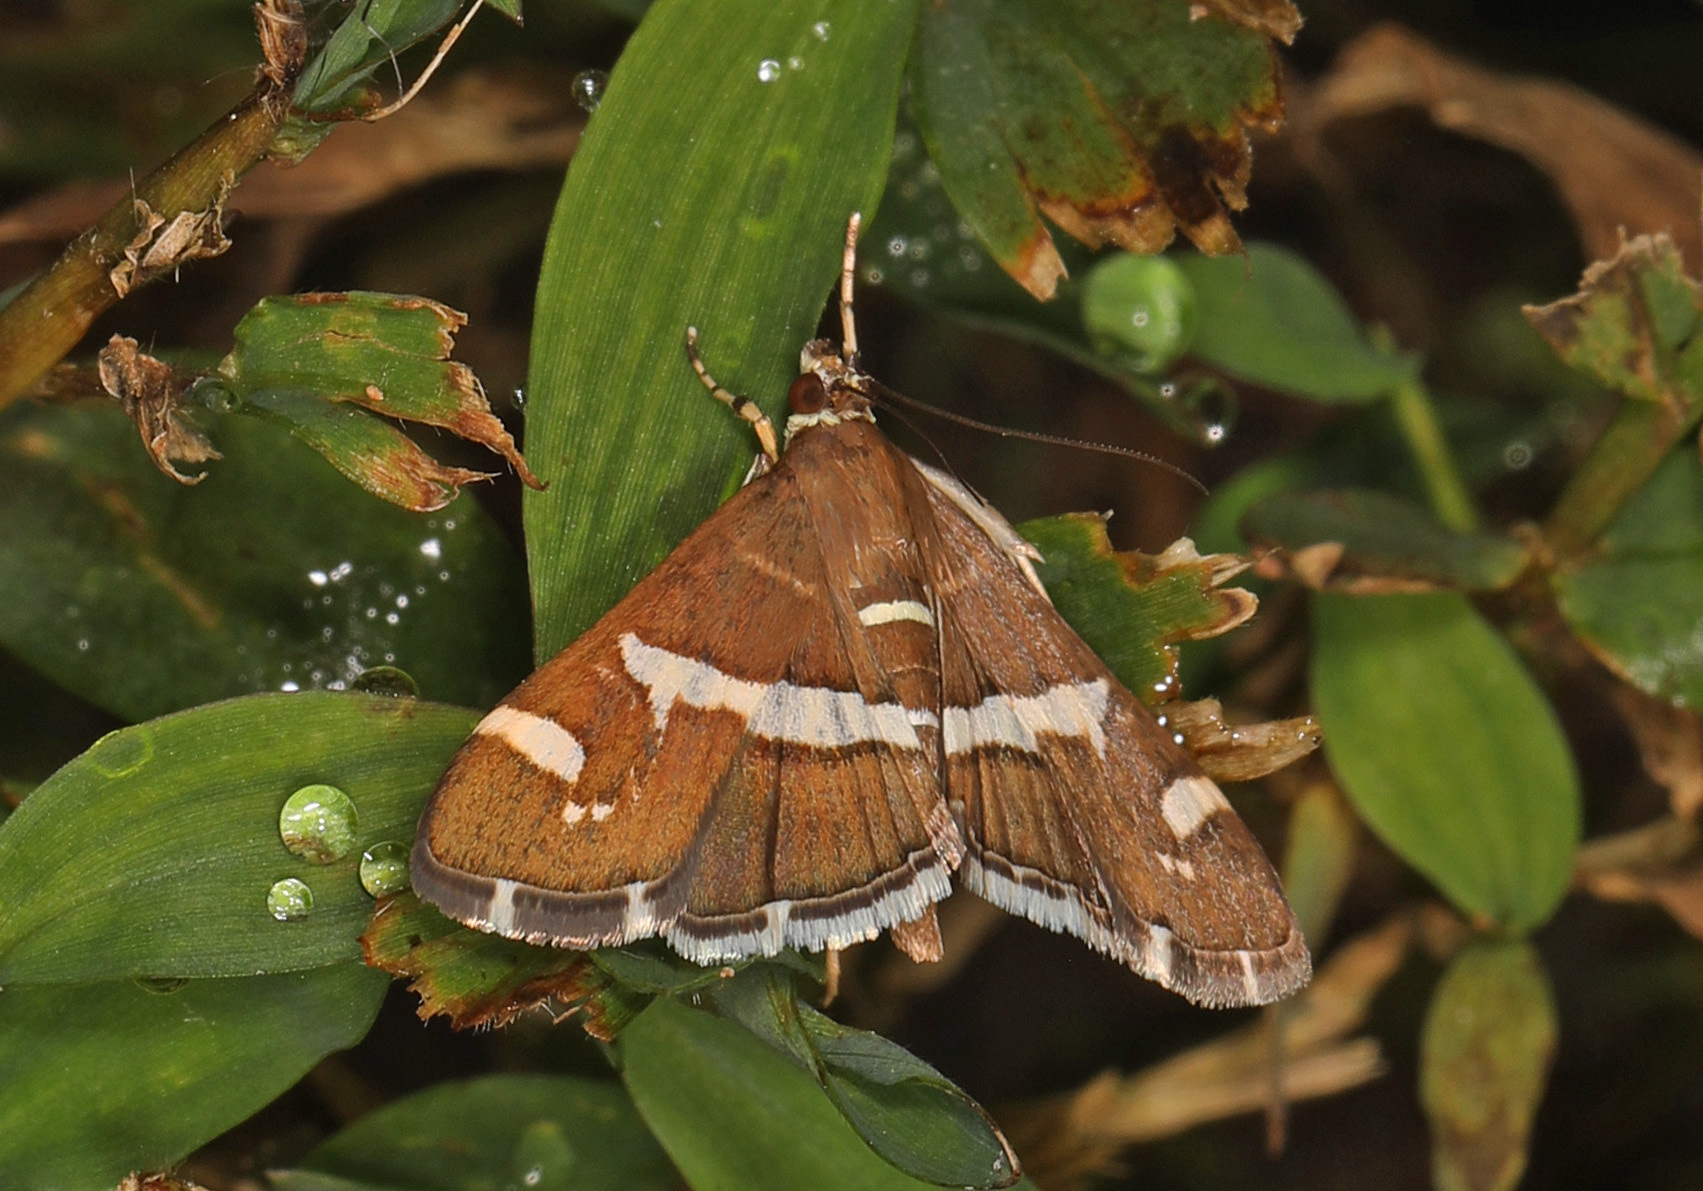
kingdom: Animalia
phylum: Arthropoda
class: Insecta
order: Lepidoptera
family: Crambidae
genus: Spoladea
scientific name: Spoladea recurvalis
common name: Beet webworm moth
